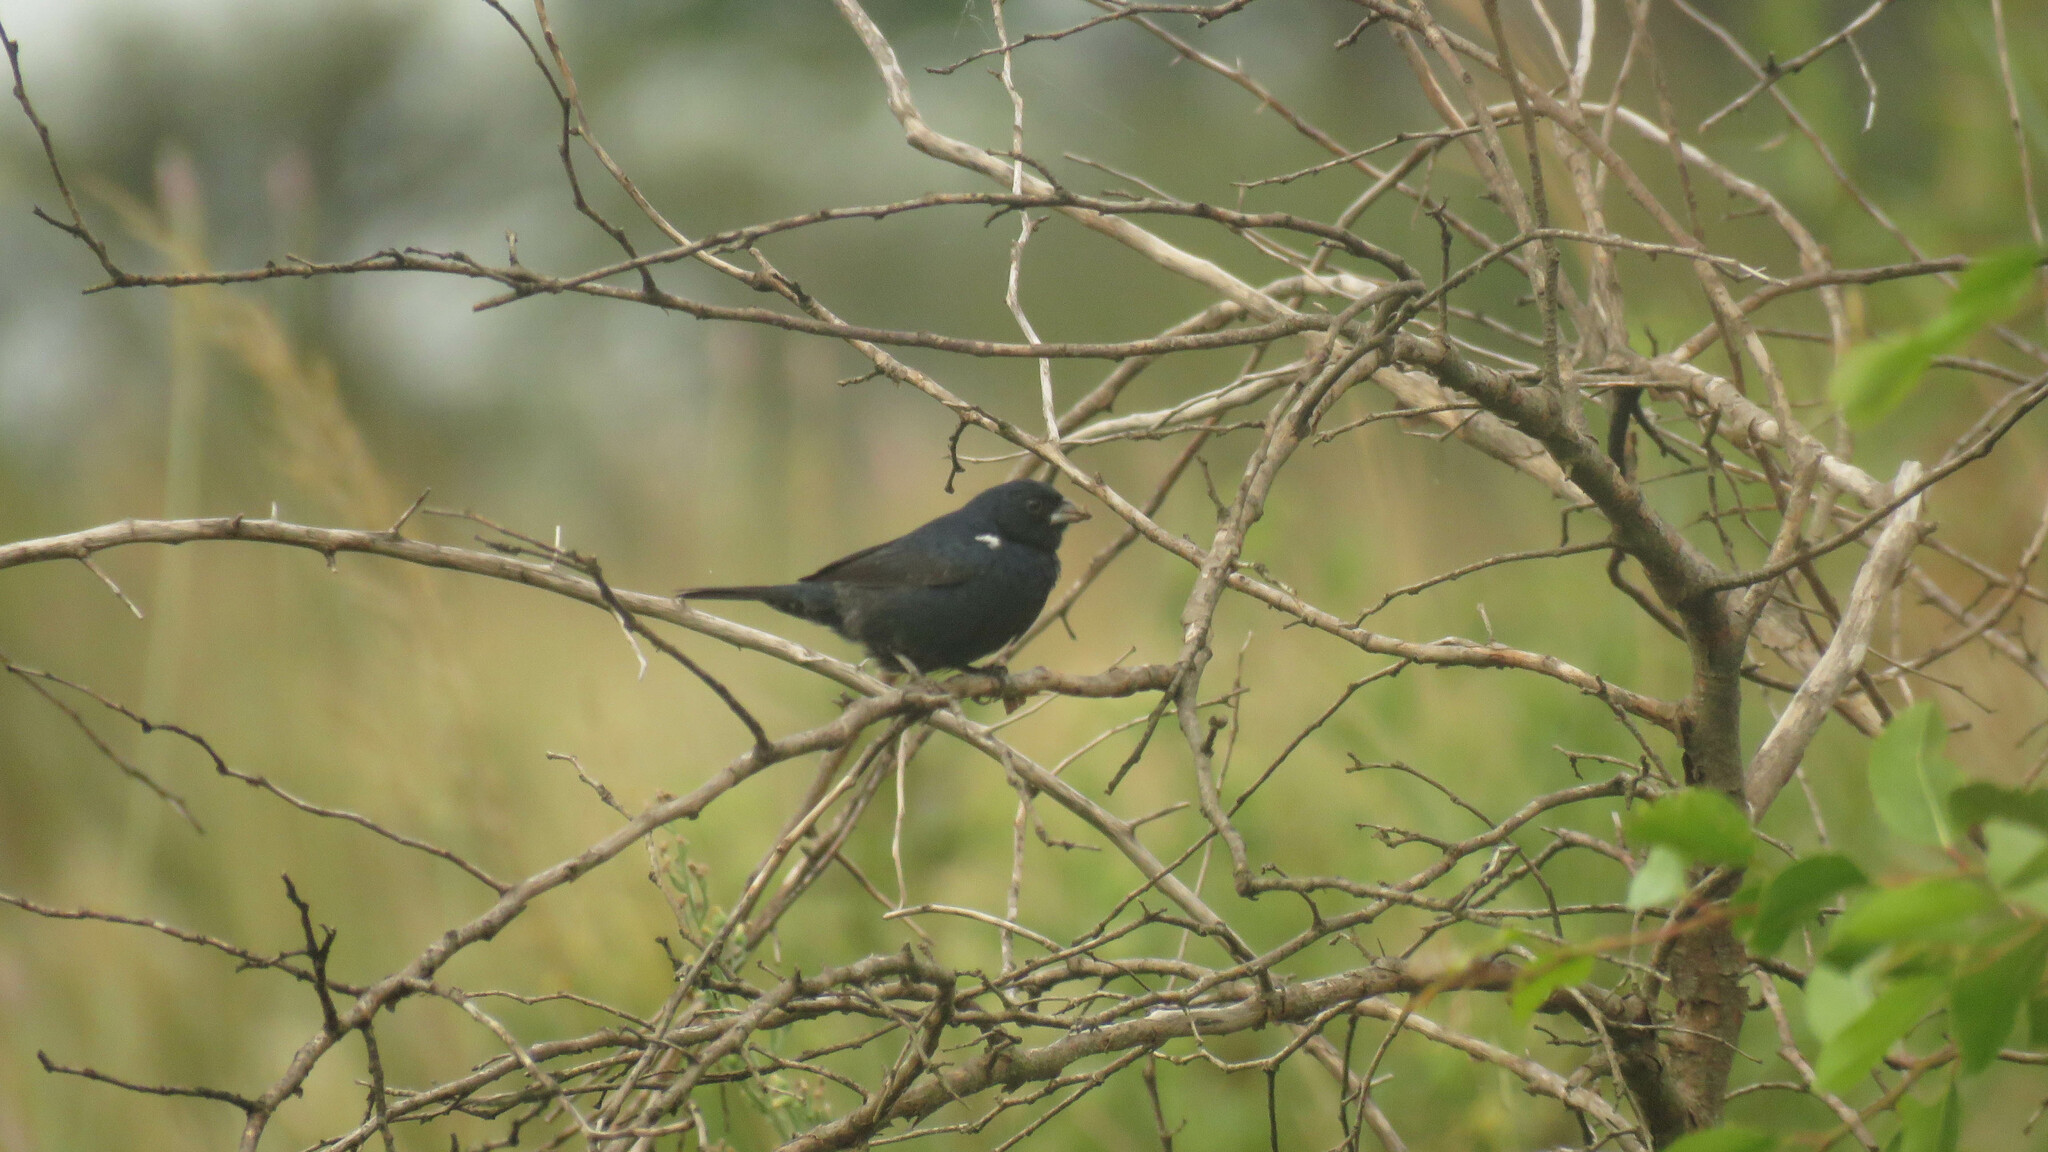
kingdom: Animalia
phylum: Chordata
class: Aves
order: Passeriformes
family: Thraupidae
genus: Volatinia
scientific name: Volatinia jacarina
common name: Blue-black grassquit
